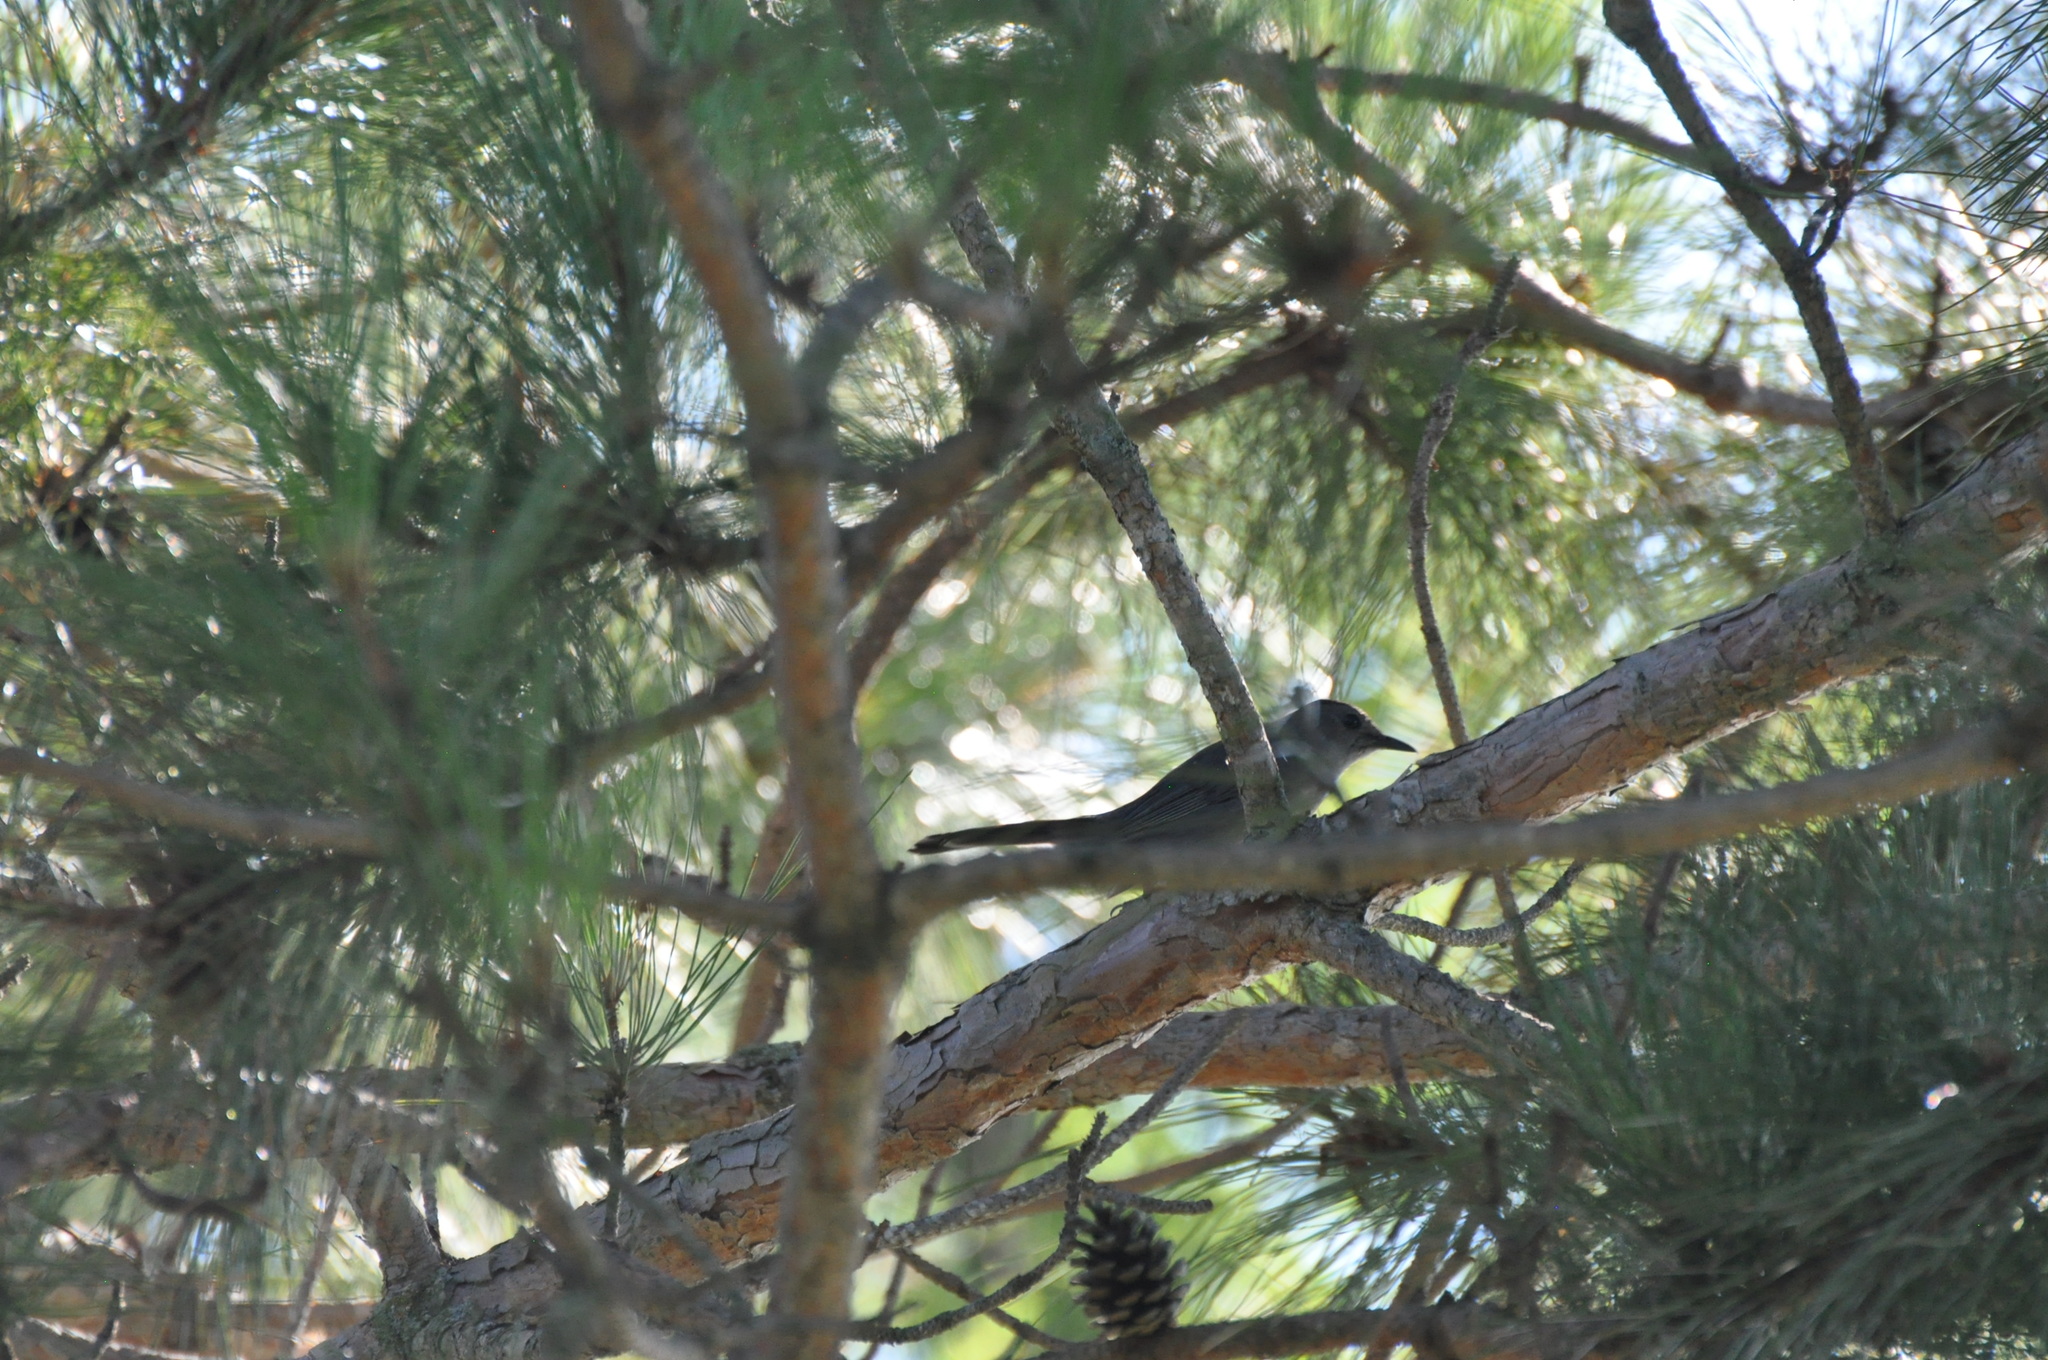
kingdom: Animalia
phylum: Chordata
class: Aves
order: Passeriformes
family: Mimidae
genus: Dumetella
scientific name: Dumetella carolinensis
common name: Gray catbird
